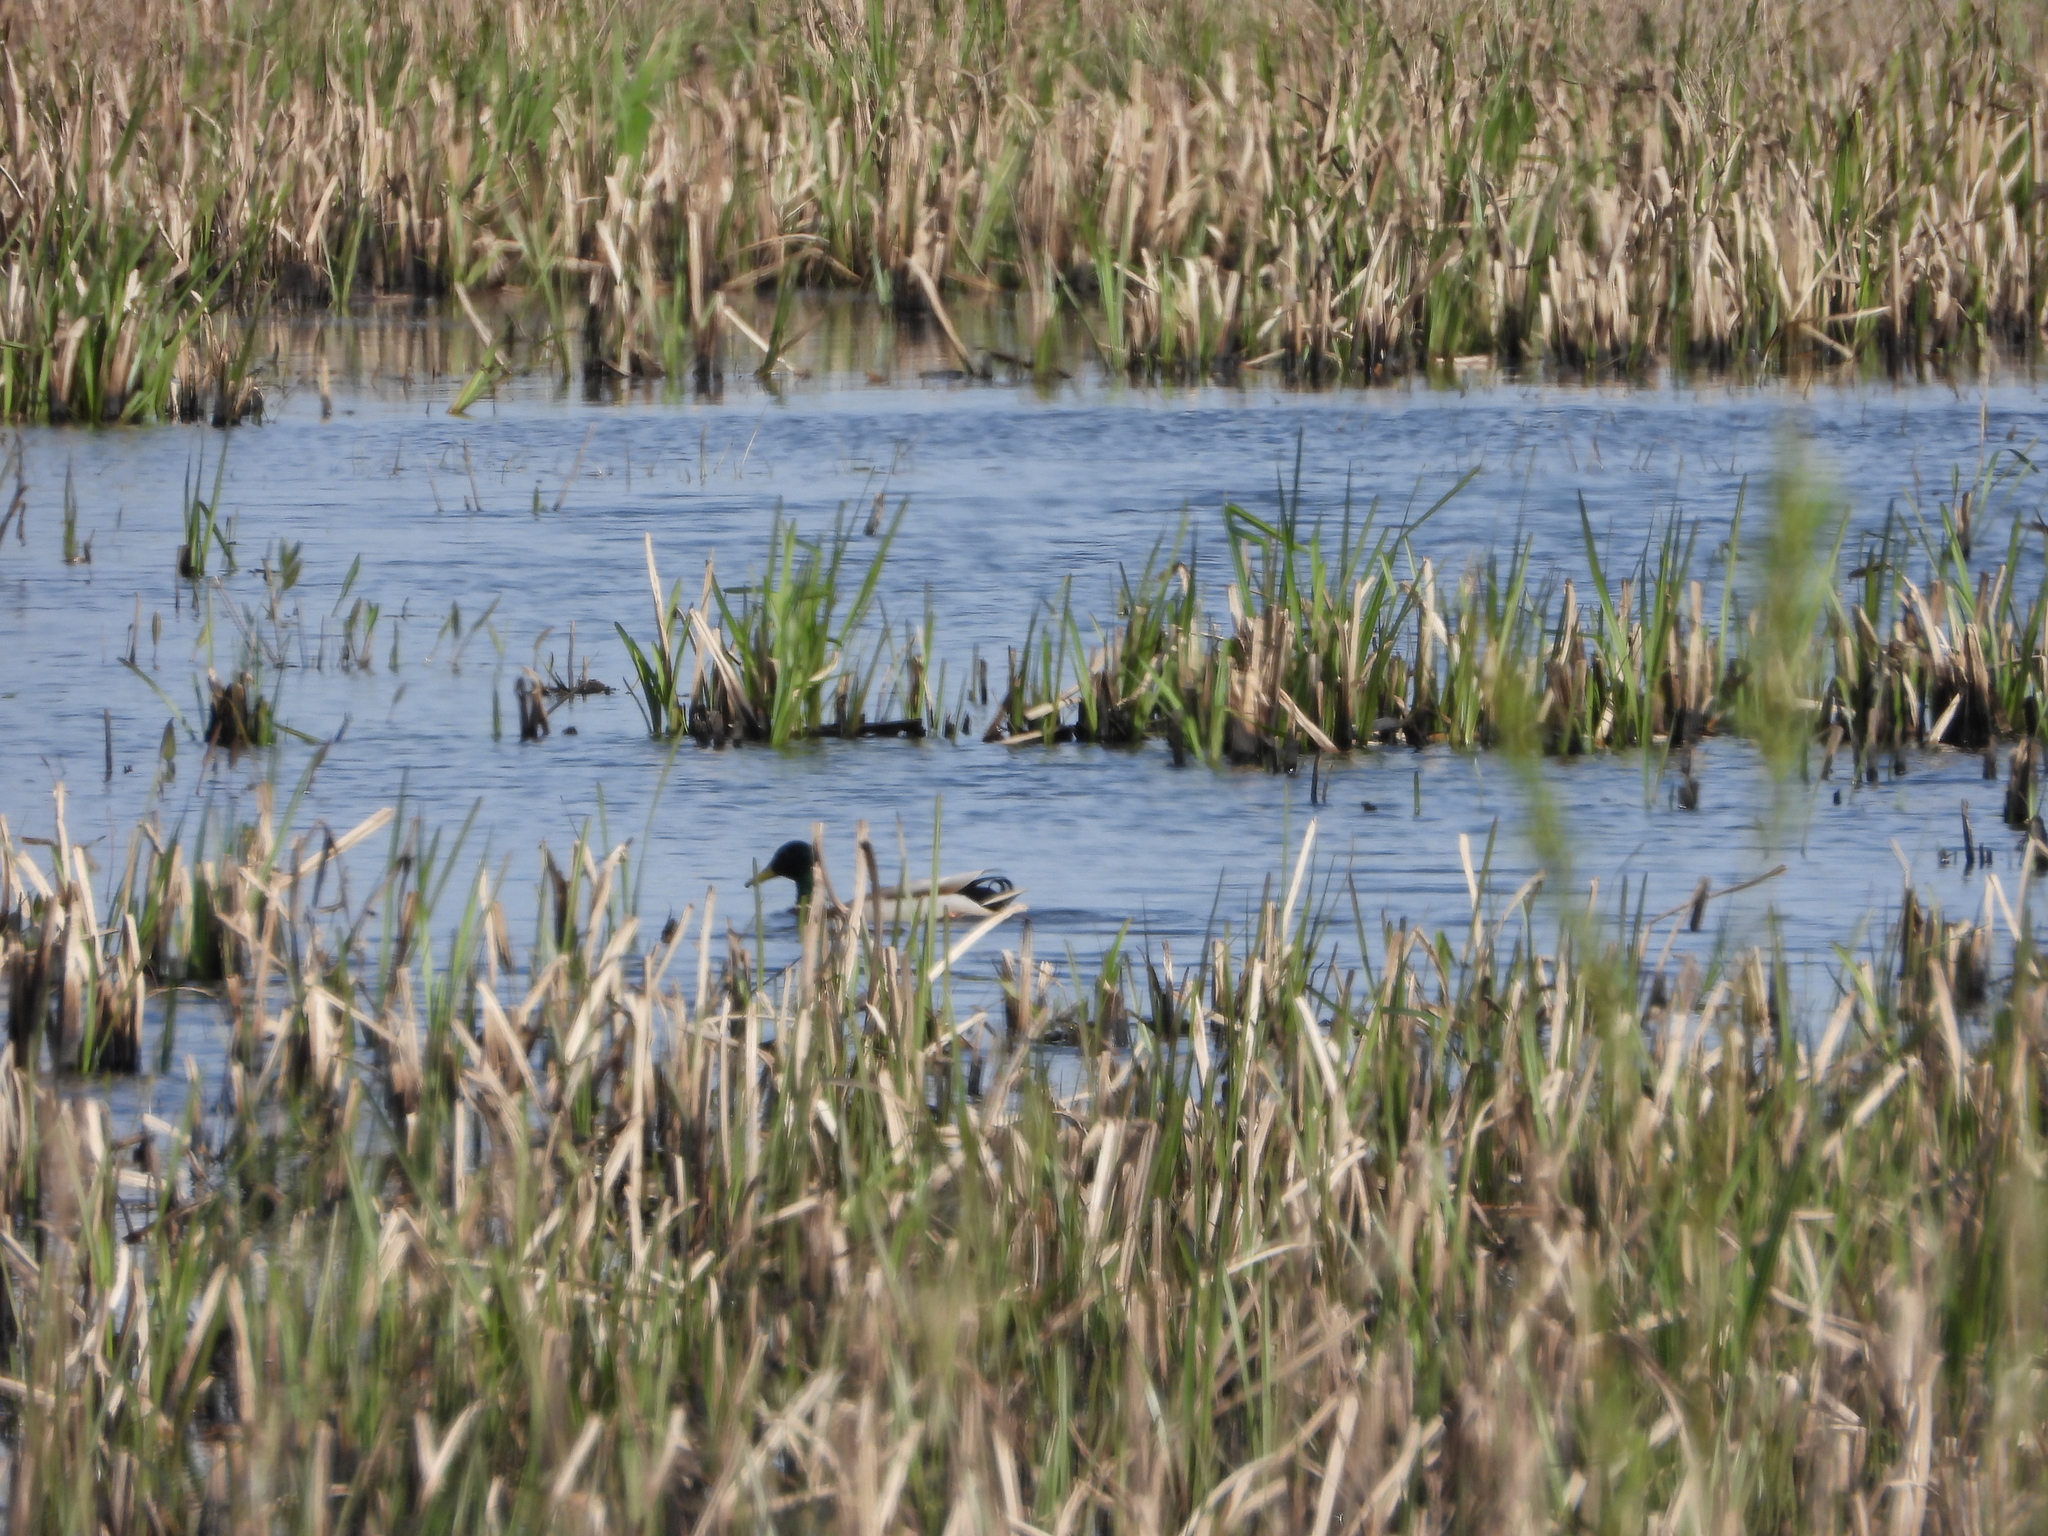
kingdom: Animalia
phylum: Chordata
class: Aves
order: Anseriformes
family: Anatidae
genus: Anas
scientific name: Anas platyrhynchos
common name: Mallard
